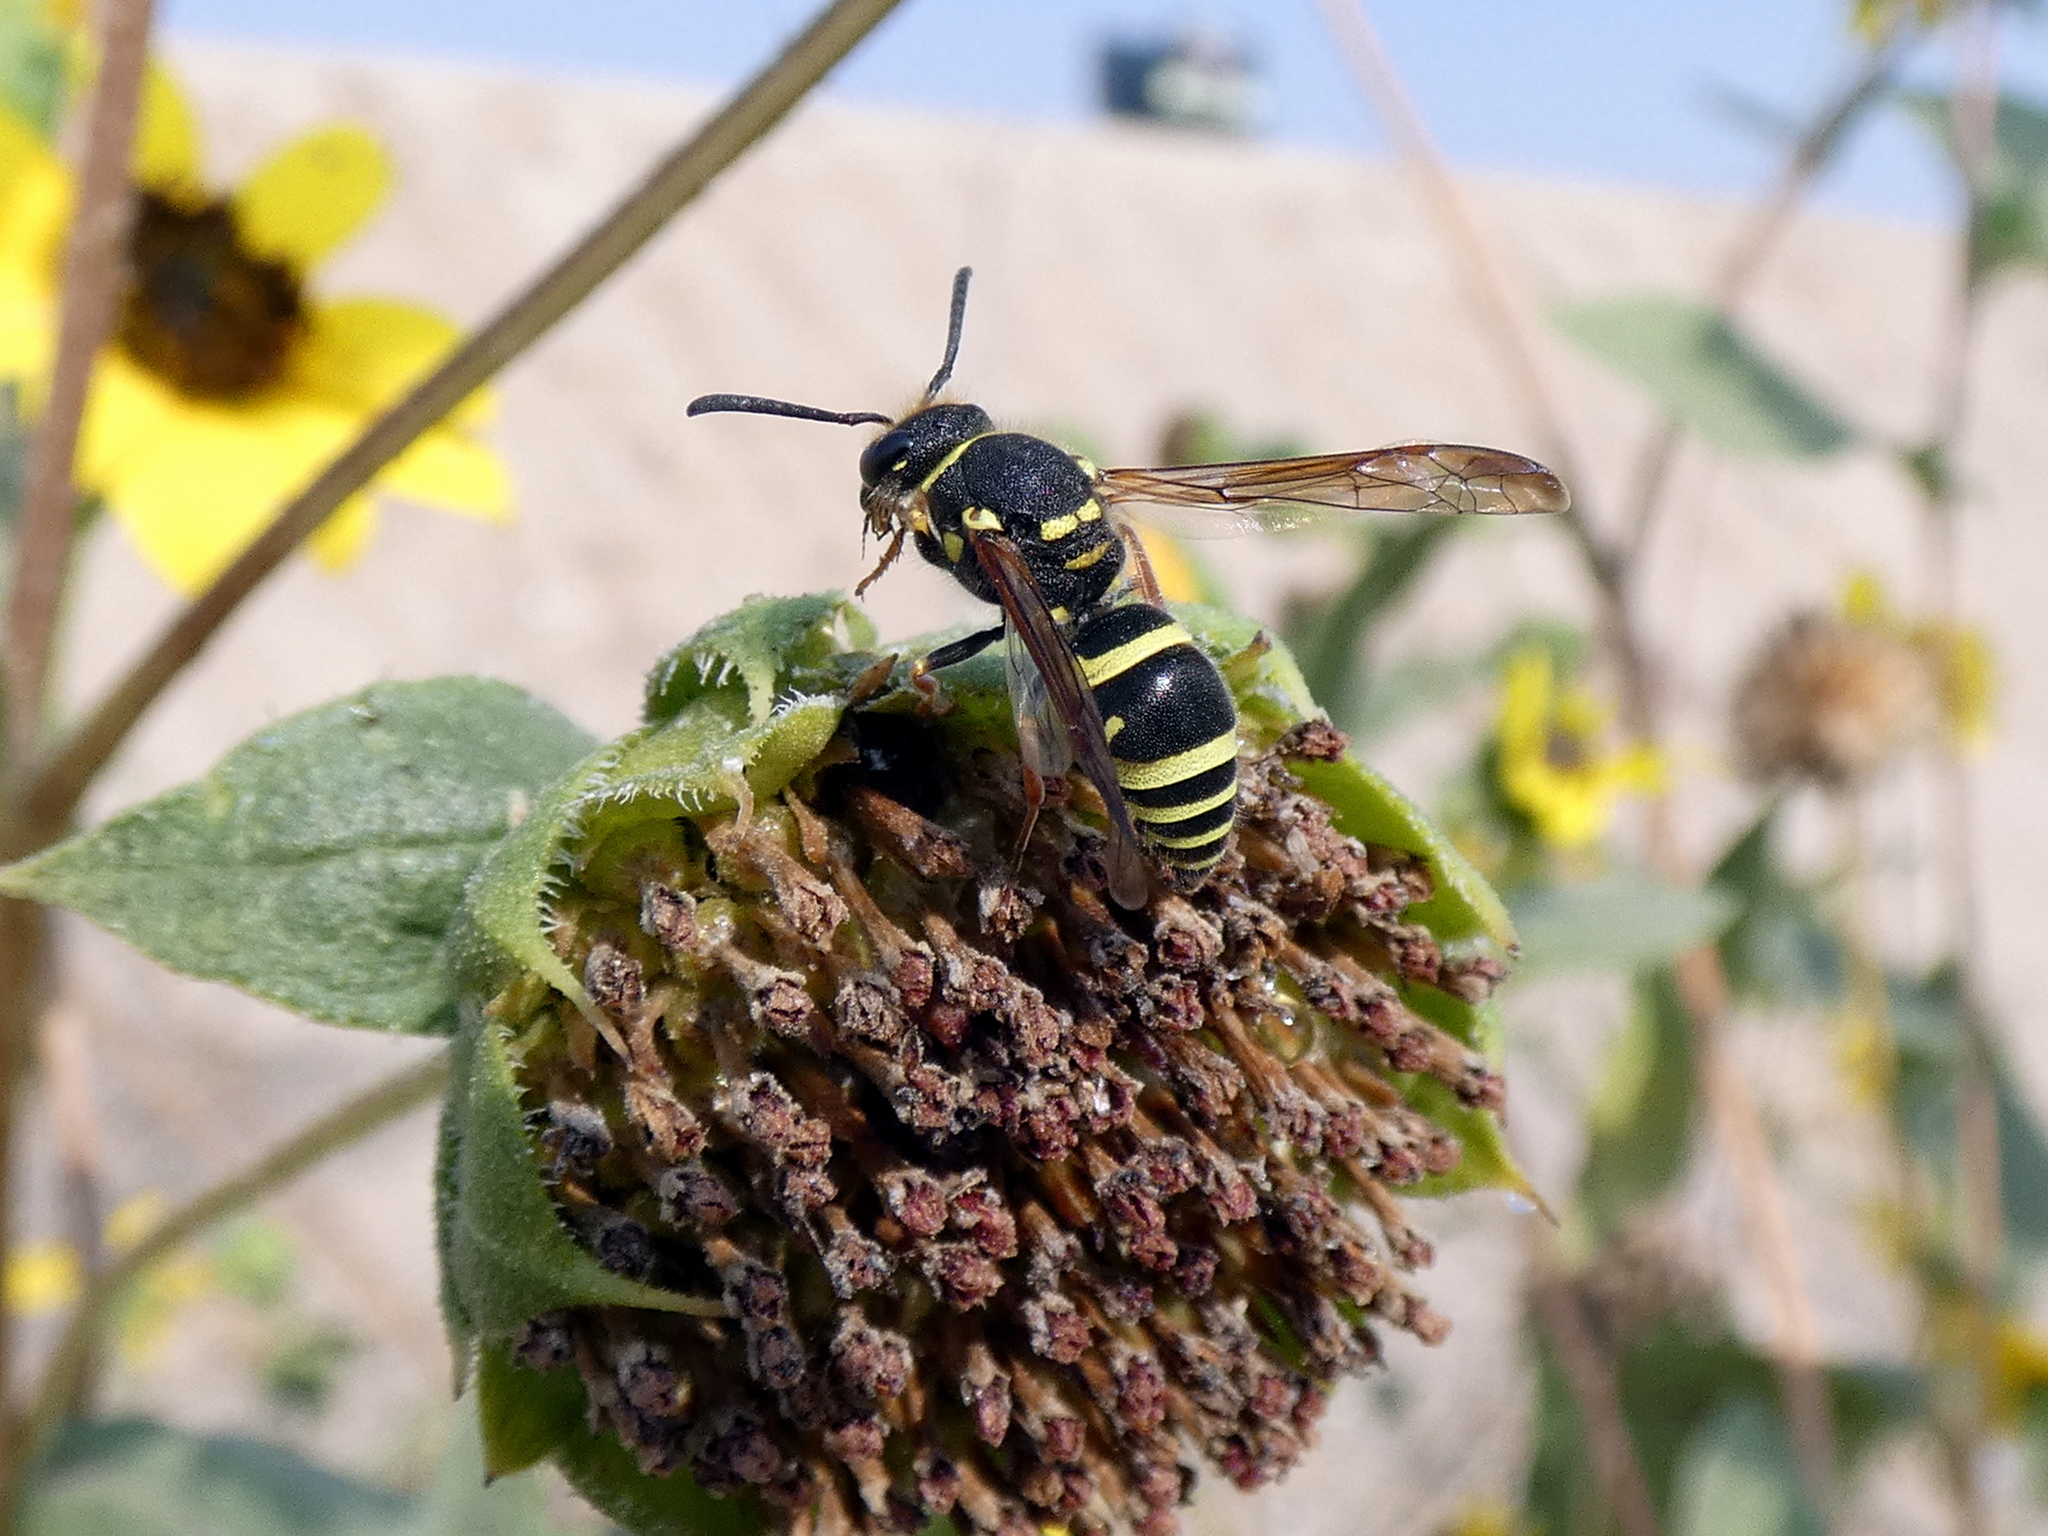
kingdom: Animalia
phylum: Arthropoda
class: Insecta
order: Hymenoptera
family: Vespidae
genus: Ancistrocerus
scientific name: Ancistrocerus bustamente
